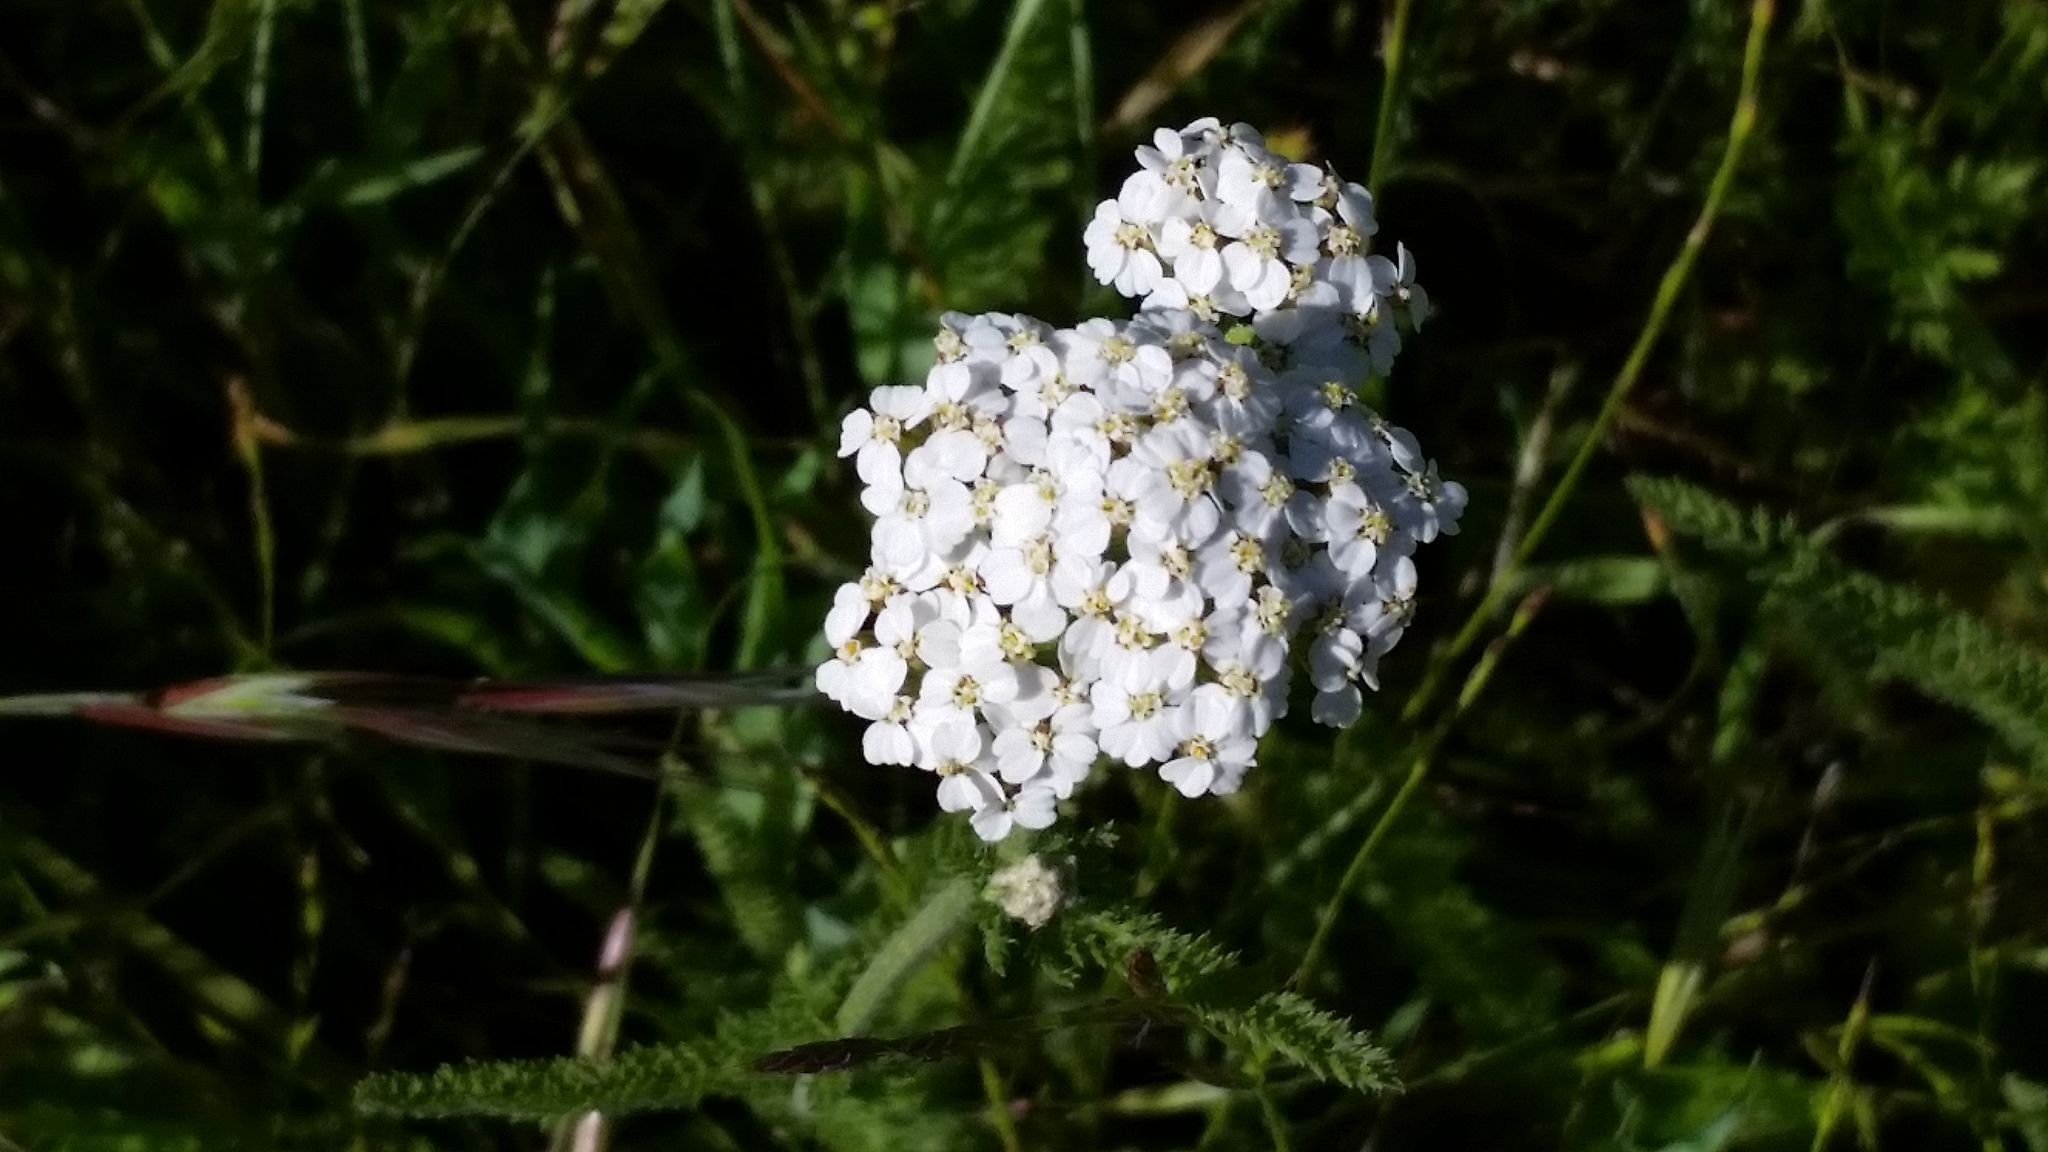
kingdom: Plantae
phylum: Tracheophyta
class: Magnoliopsida
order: Asterales
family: Asteraceae
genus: Achillea
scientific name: Achillea millefolium
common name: Yarrow
